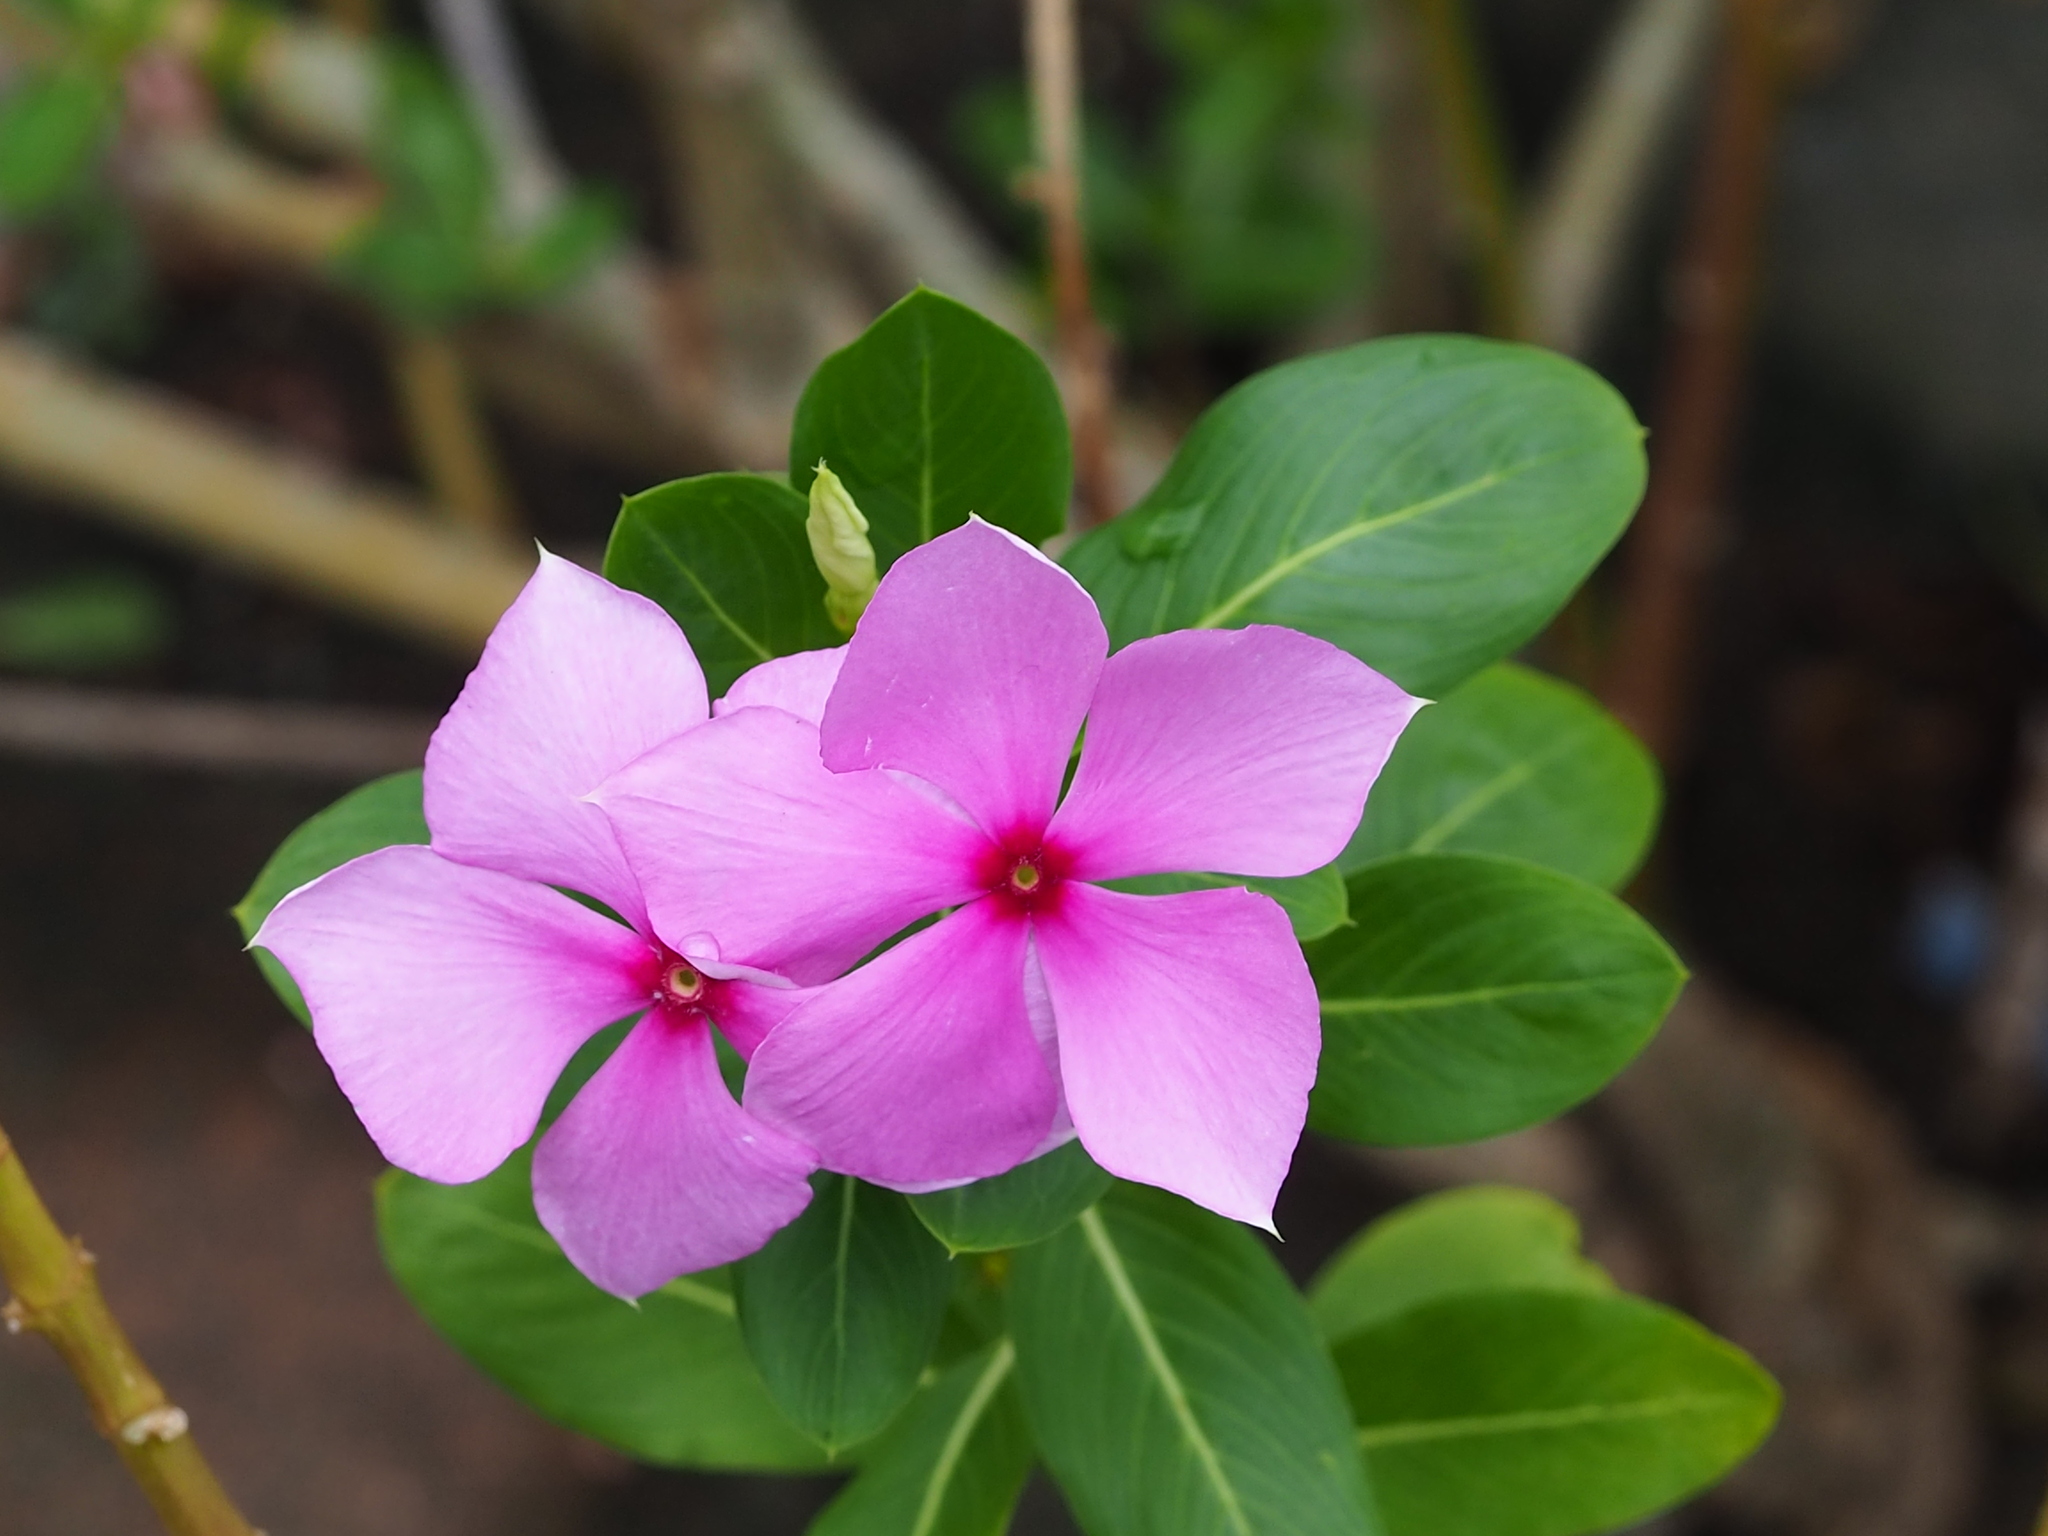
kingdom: Plantae
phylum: Tracheophyta
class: Magnoliopsida
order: Gentianales
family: Apocynaceae
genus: Catharanthus
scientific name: Catharanthus roseus
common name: Madagascar periwinkle
